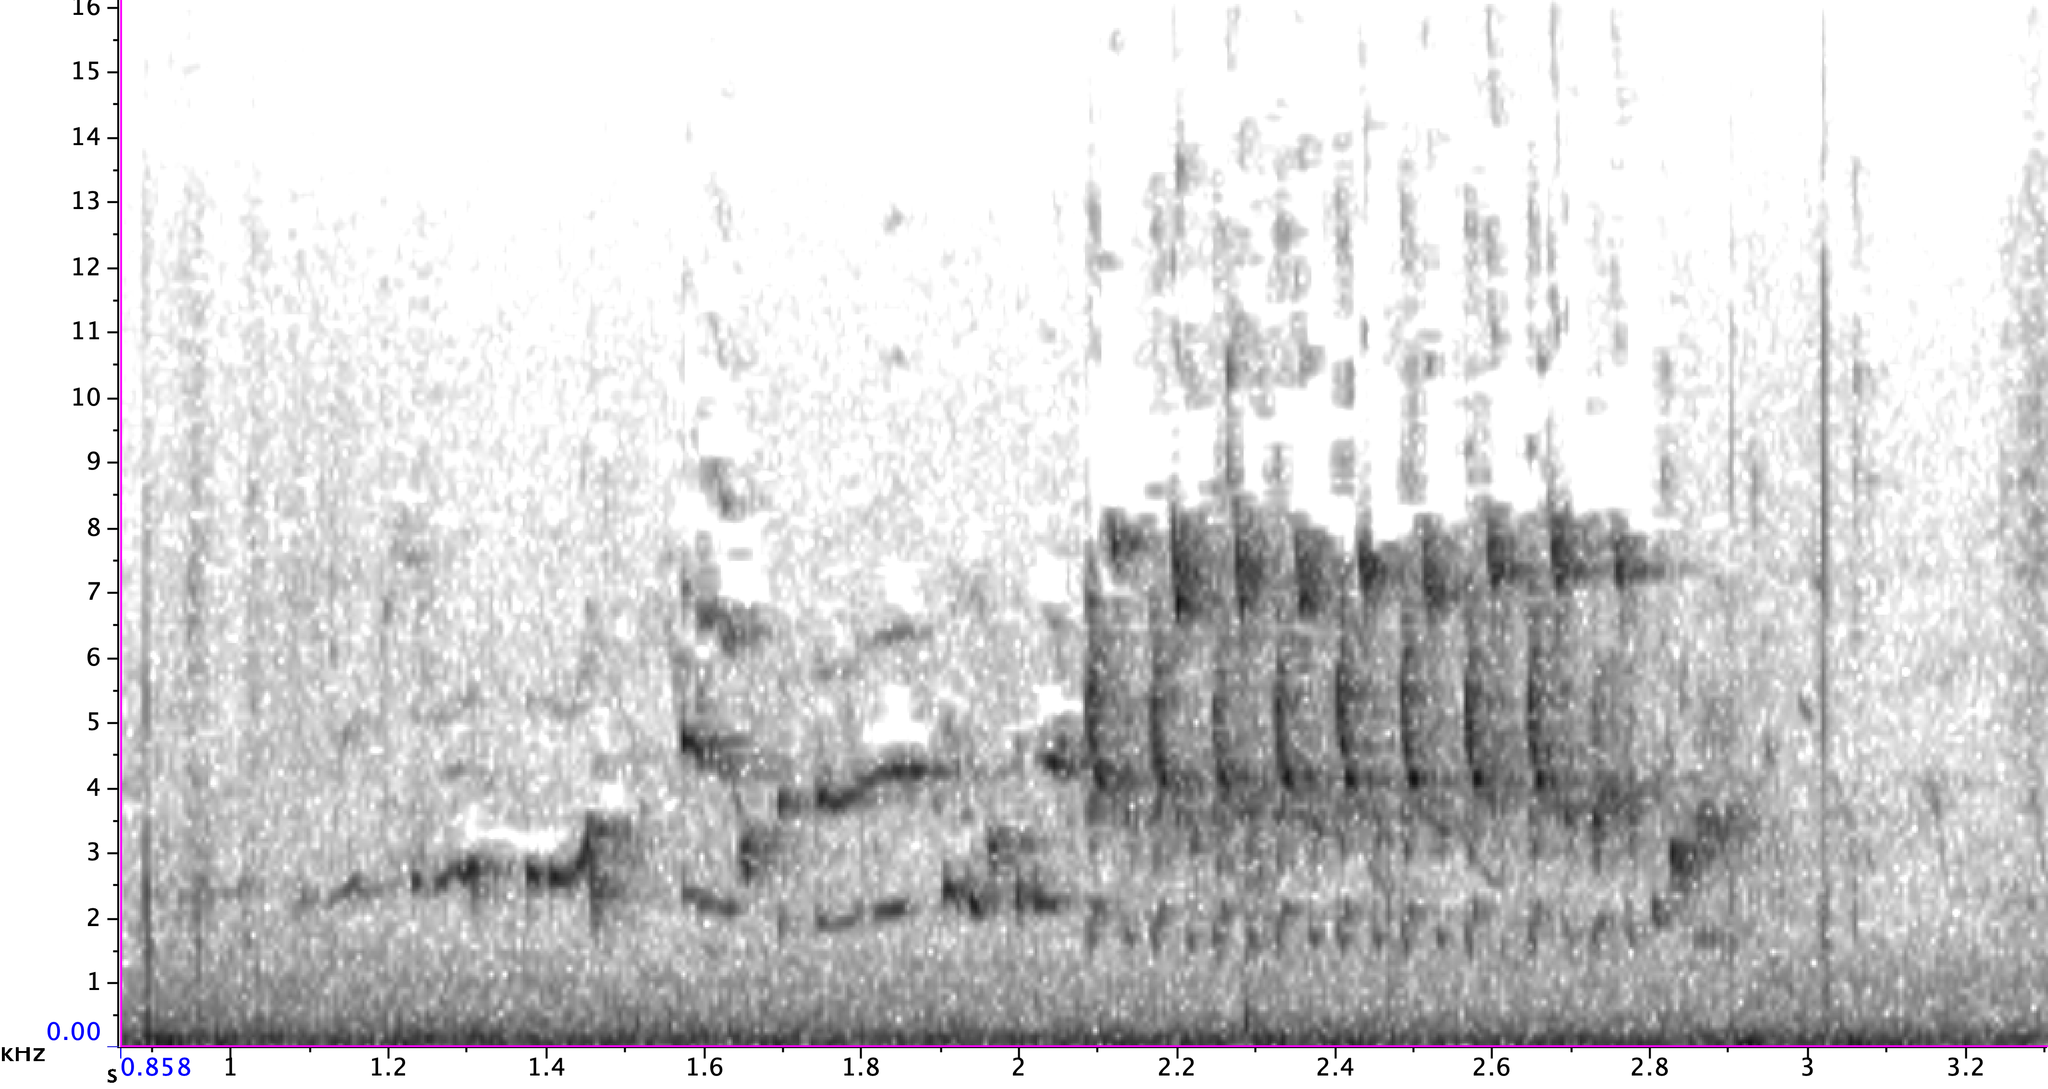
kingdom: Animalia
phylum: Chordata
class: Aves
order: Passeriformes
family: Troglodytidae
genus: Cistothorus
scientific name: Cistothorus palustris
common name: Marsh wren
